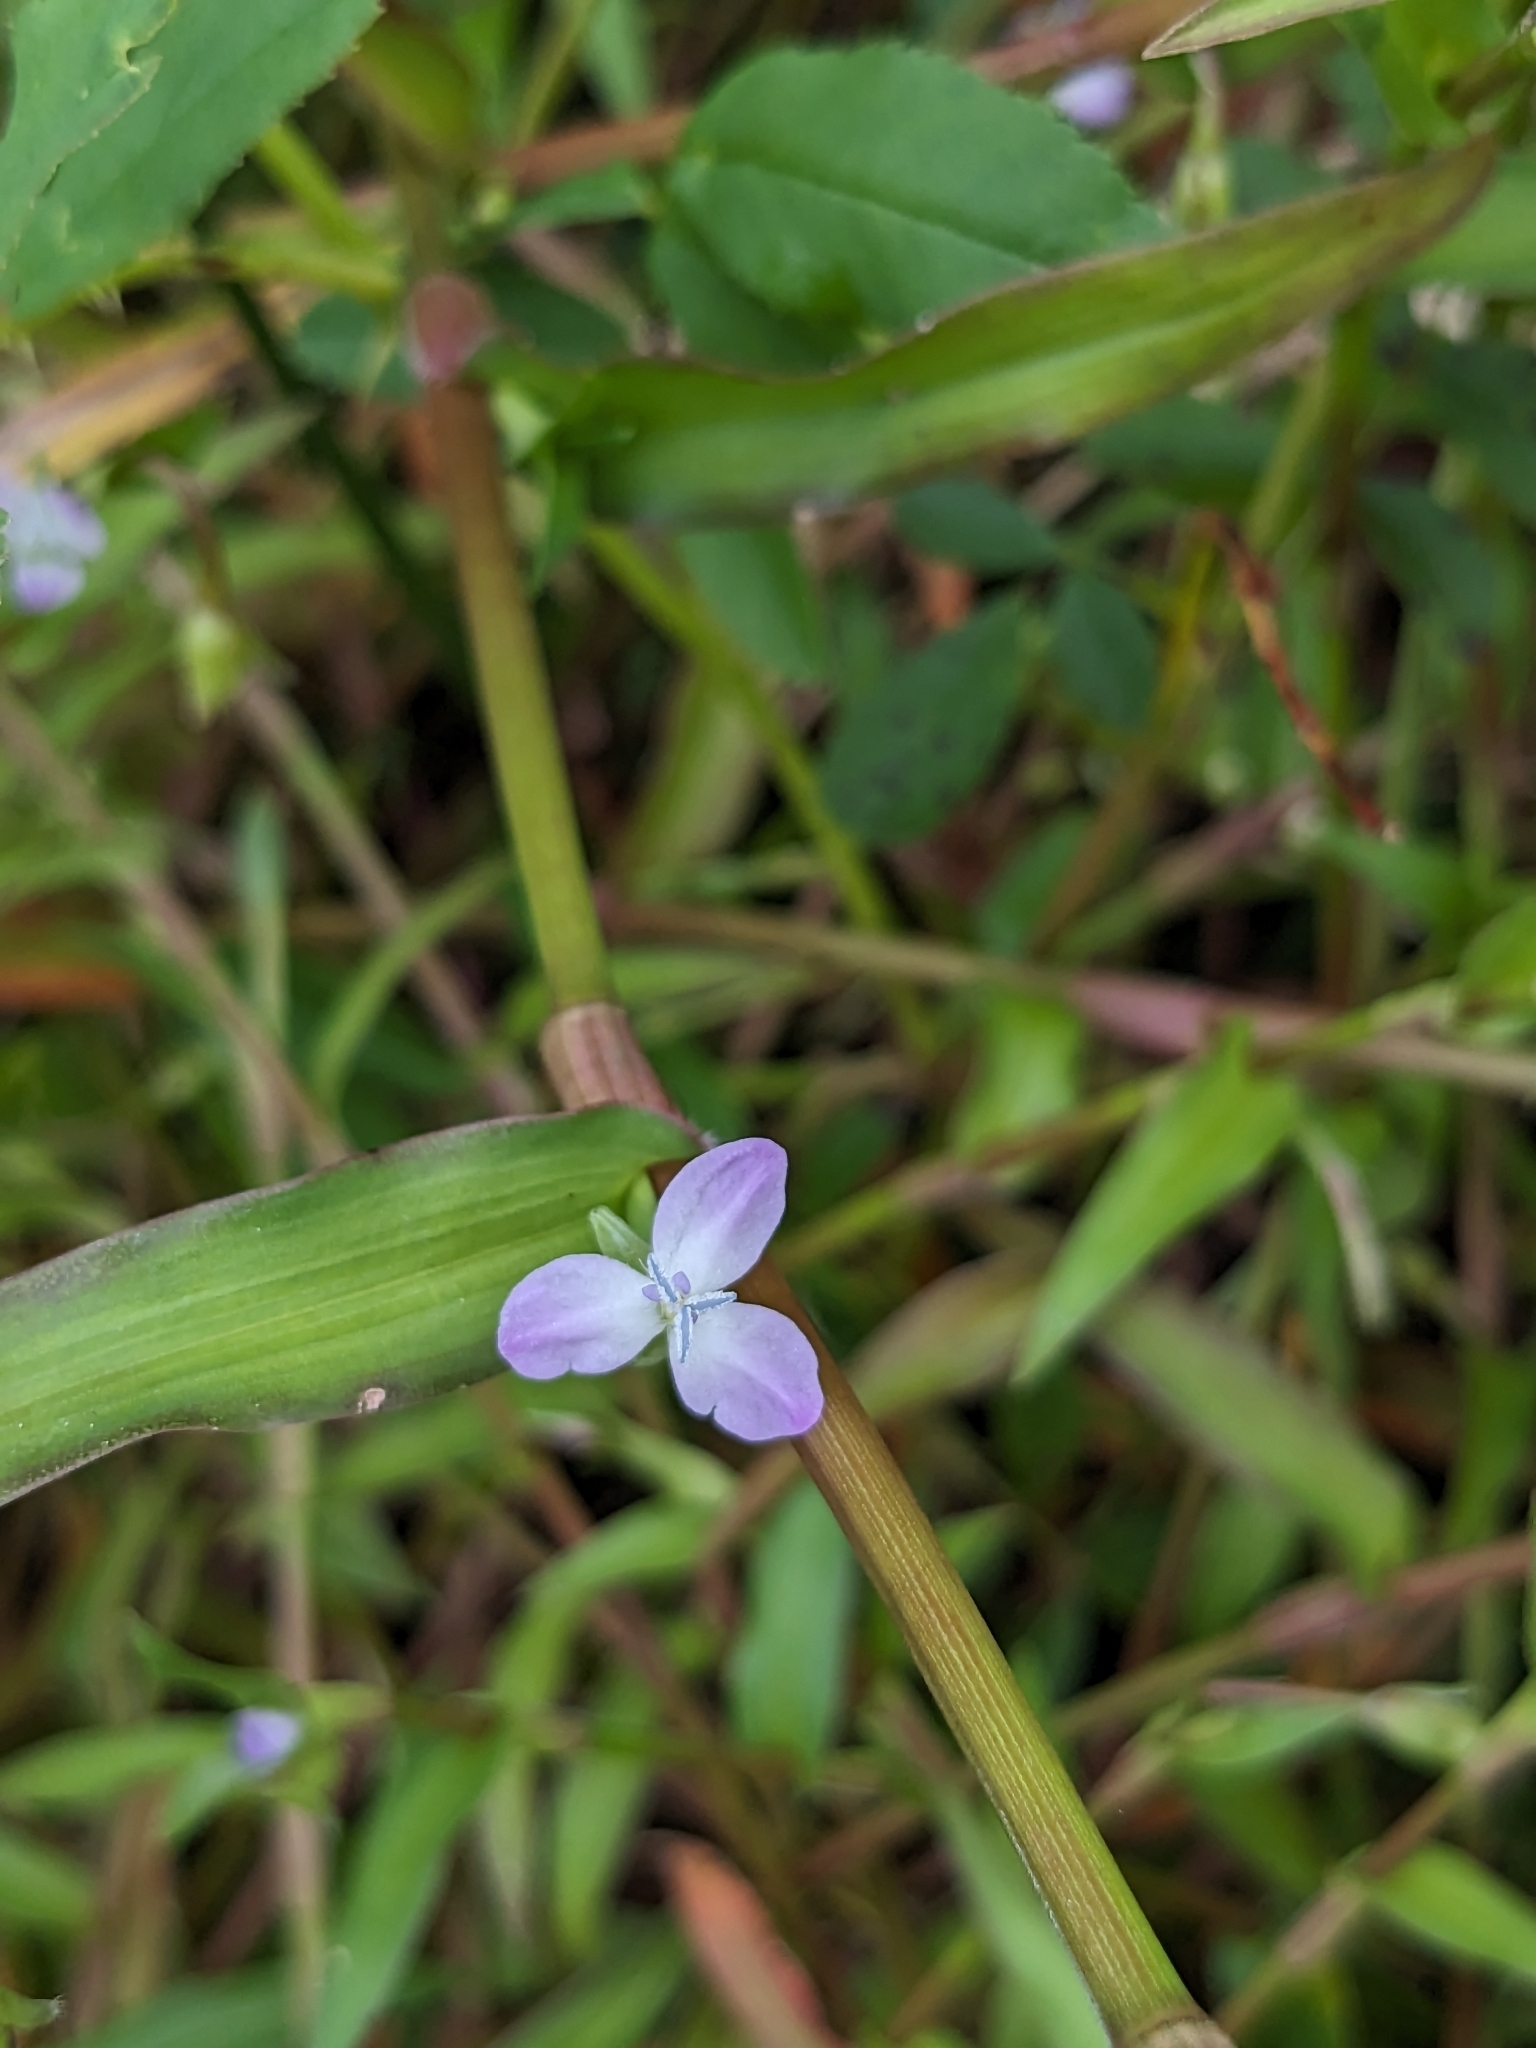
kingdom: Plantae
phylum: Tracheophyta
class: Liliopsida
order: Commelinales
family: Commelinaceae
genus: Murdannia
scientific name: Murdannia keisak
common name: Wartremoving herb
